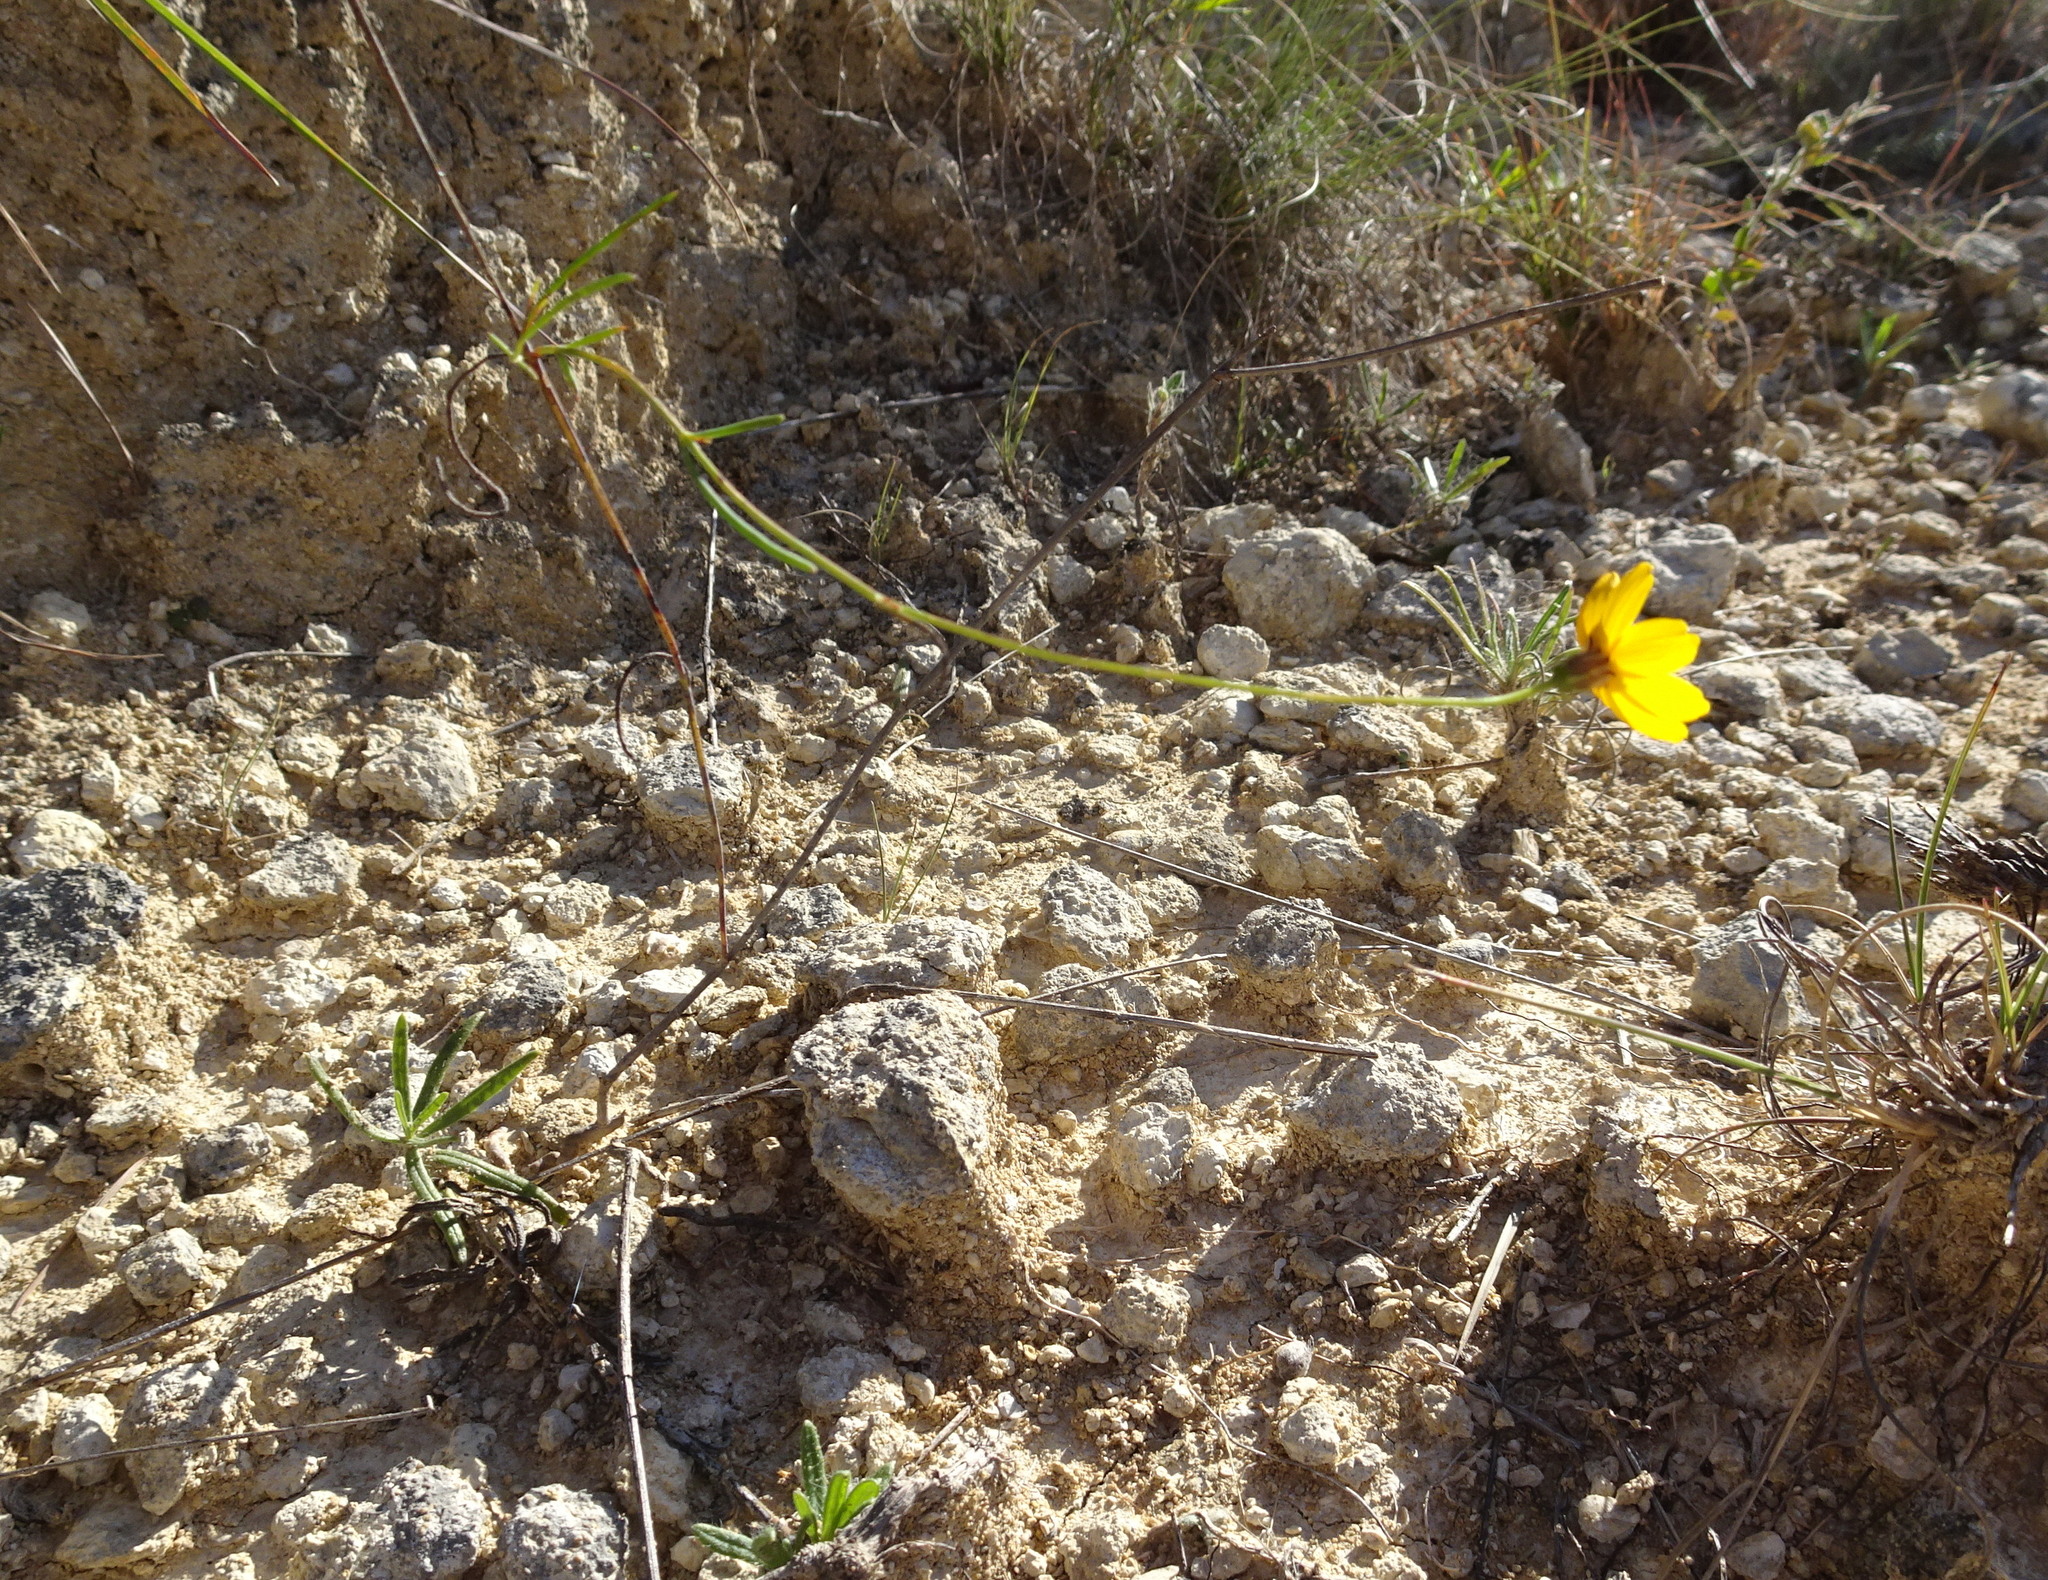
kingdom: Plantae
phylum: Tracheophyta
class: Magnoliopsida
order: Asterales
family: Asteraceae
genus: Thelesperma
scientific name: Thelesperma simplicifolium
